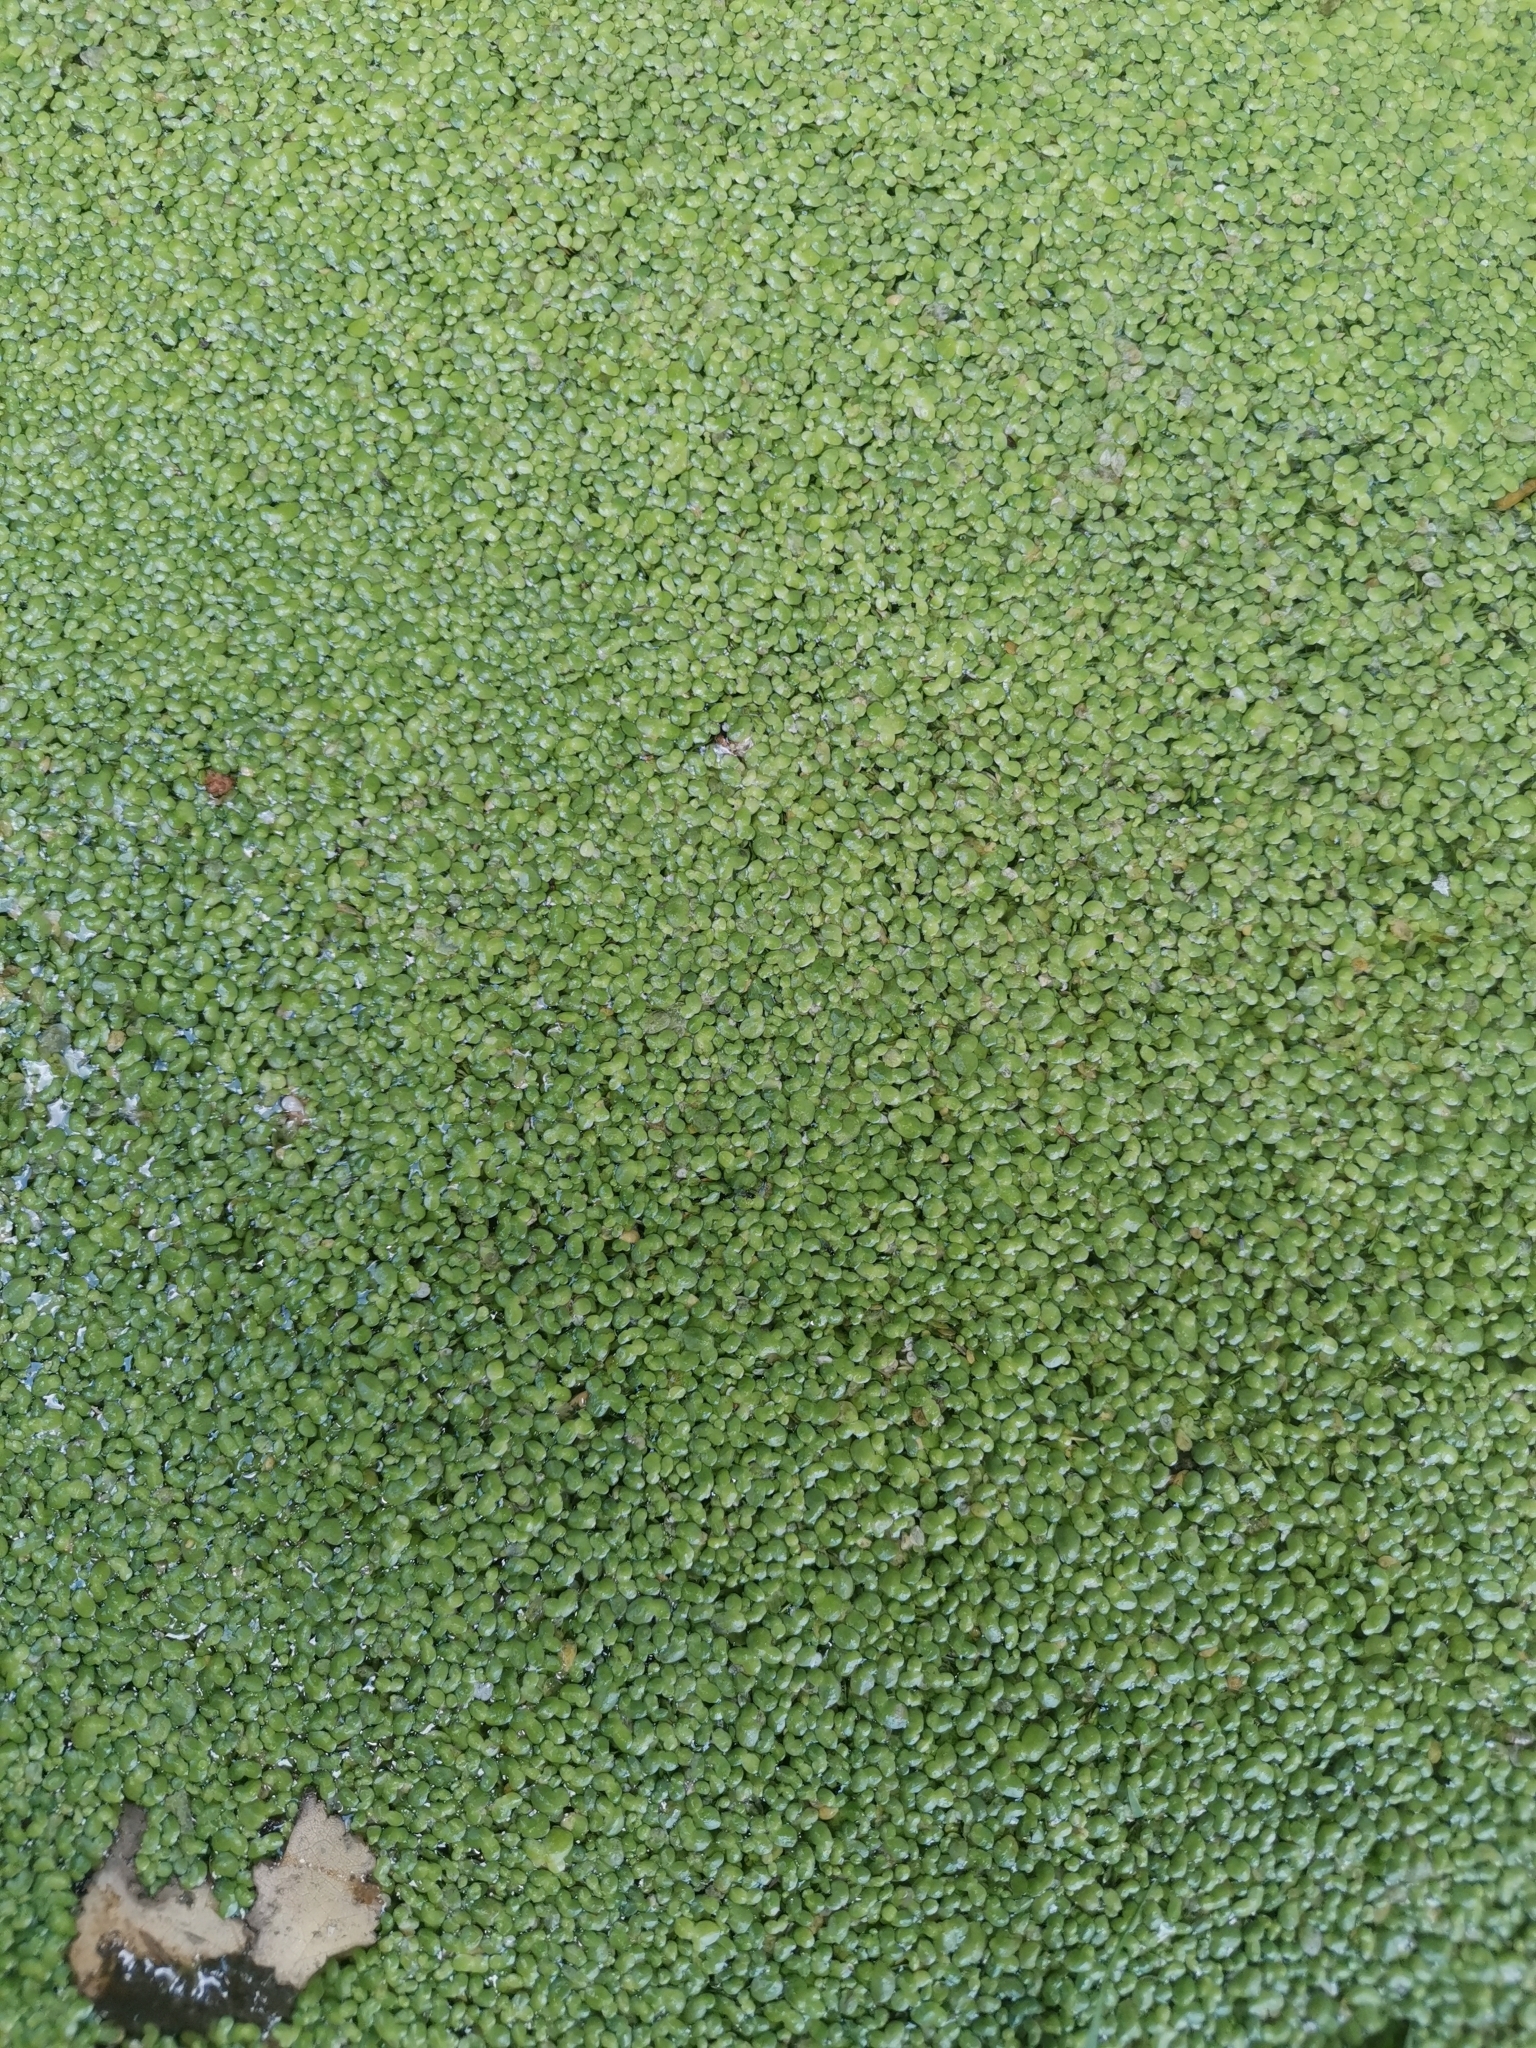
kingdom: Plantae
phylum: Tracheophyta
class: Liliopsida
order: Alismatales
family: Araceae
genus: Lemna
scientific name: Lemna minuta
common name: Least duckweed
